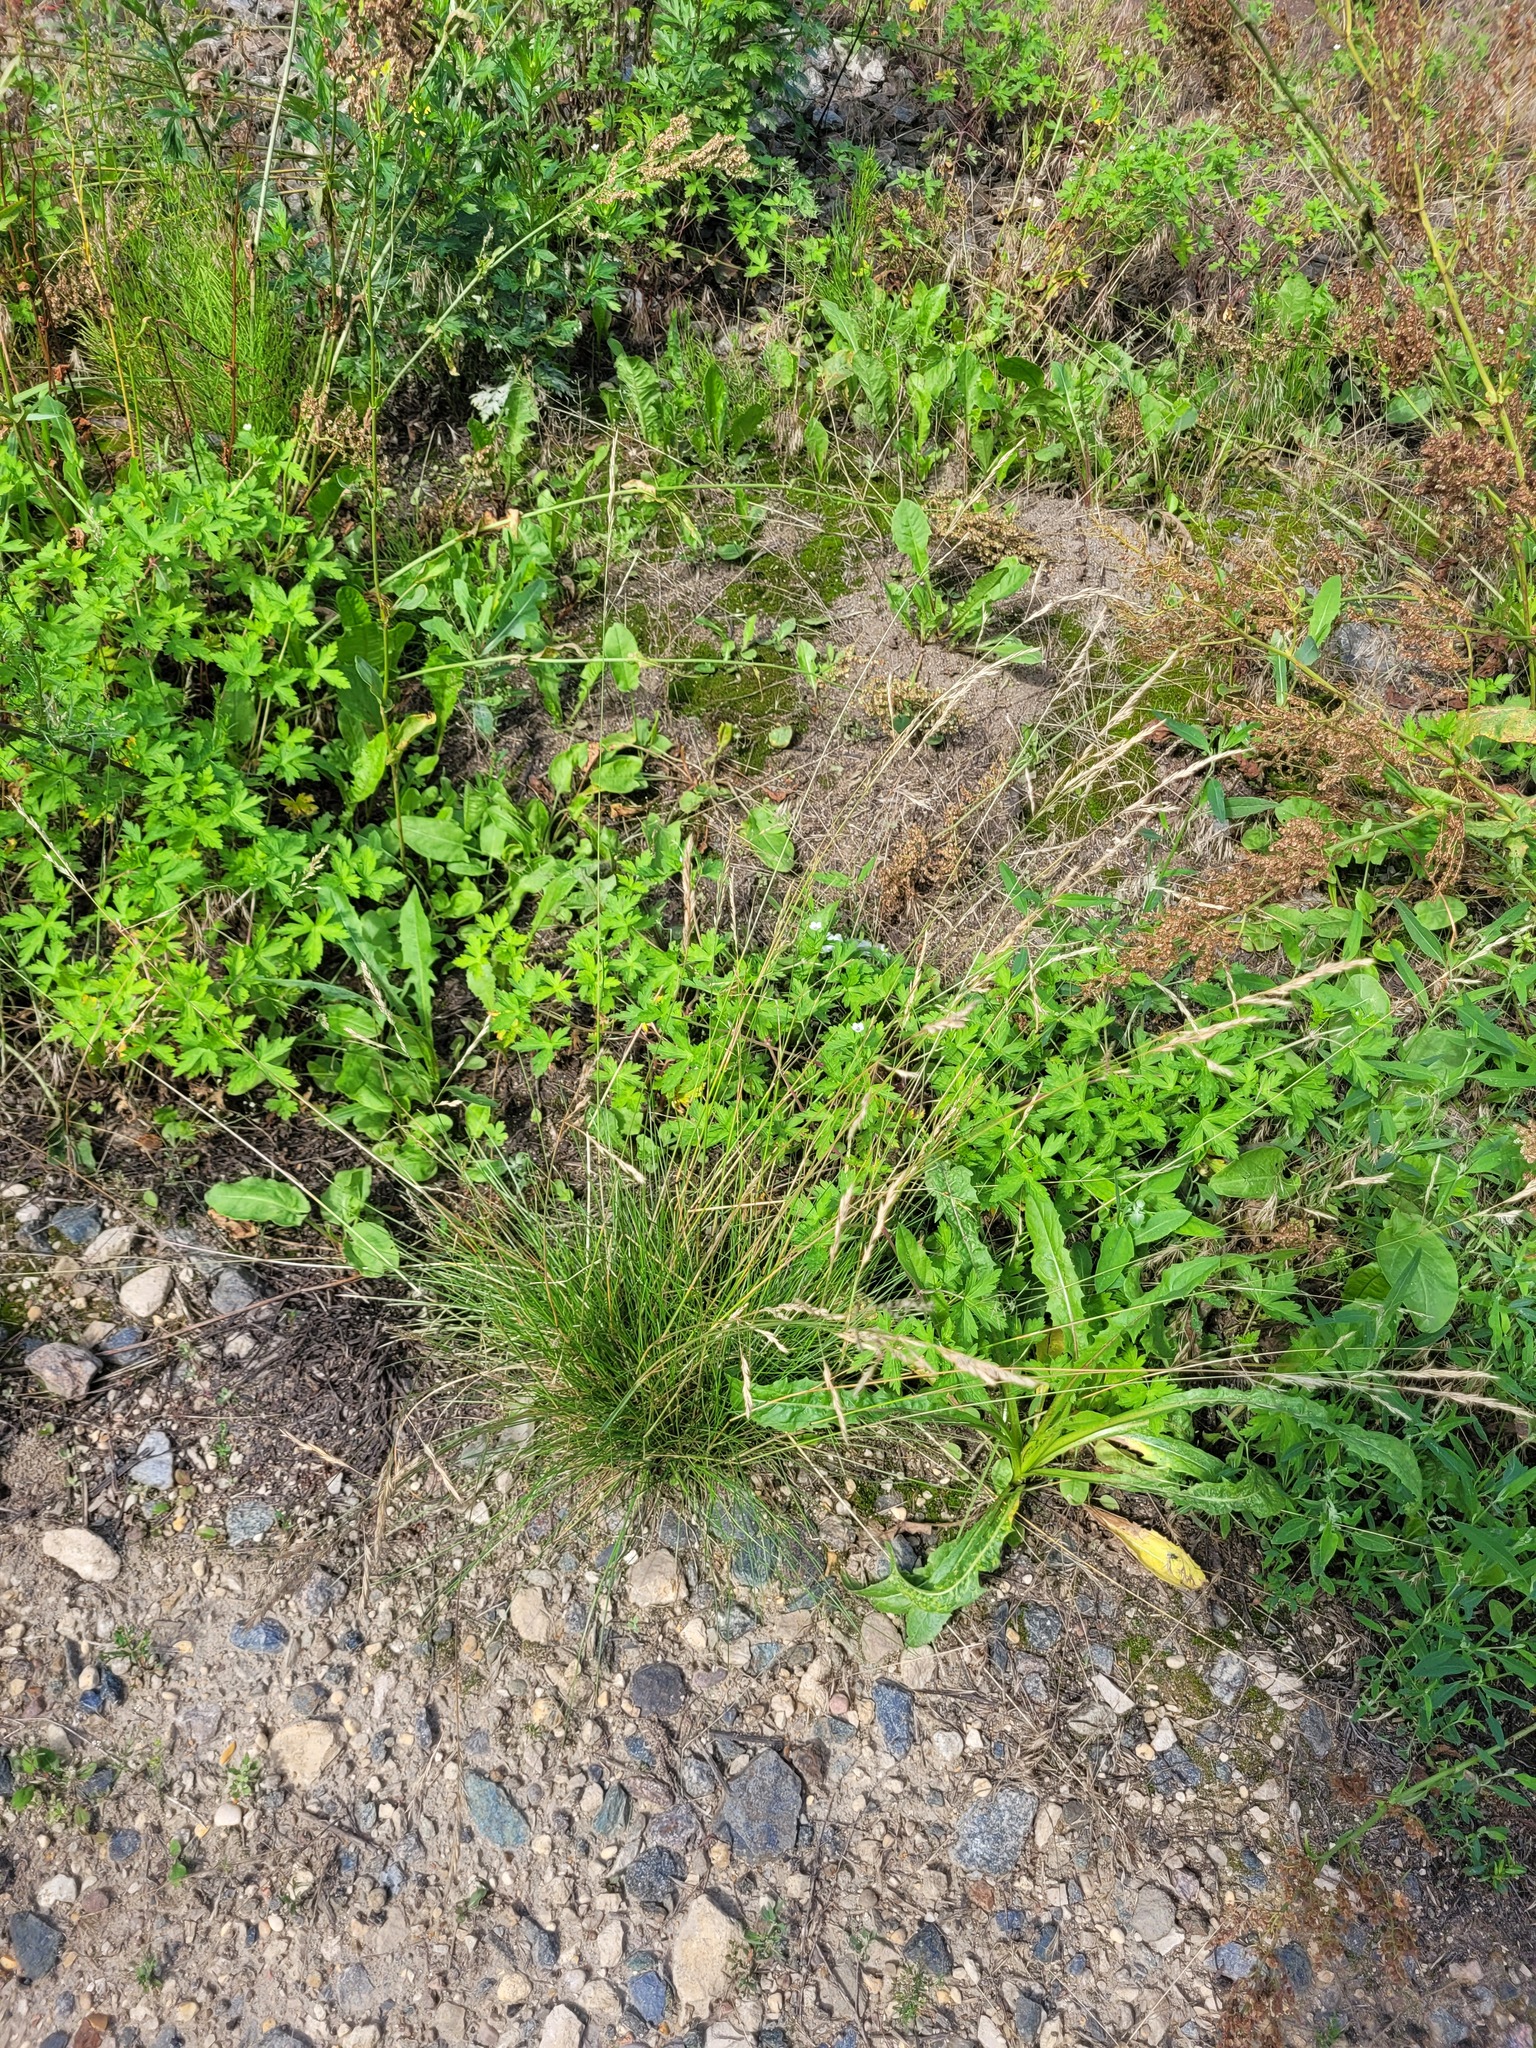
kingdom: Plantae
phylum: Tracheophyta
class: Liliopsida
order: Poales
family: Poaceae
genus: Festuca
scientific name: Festuca rubra
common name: Red fescue
